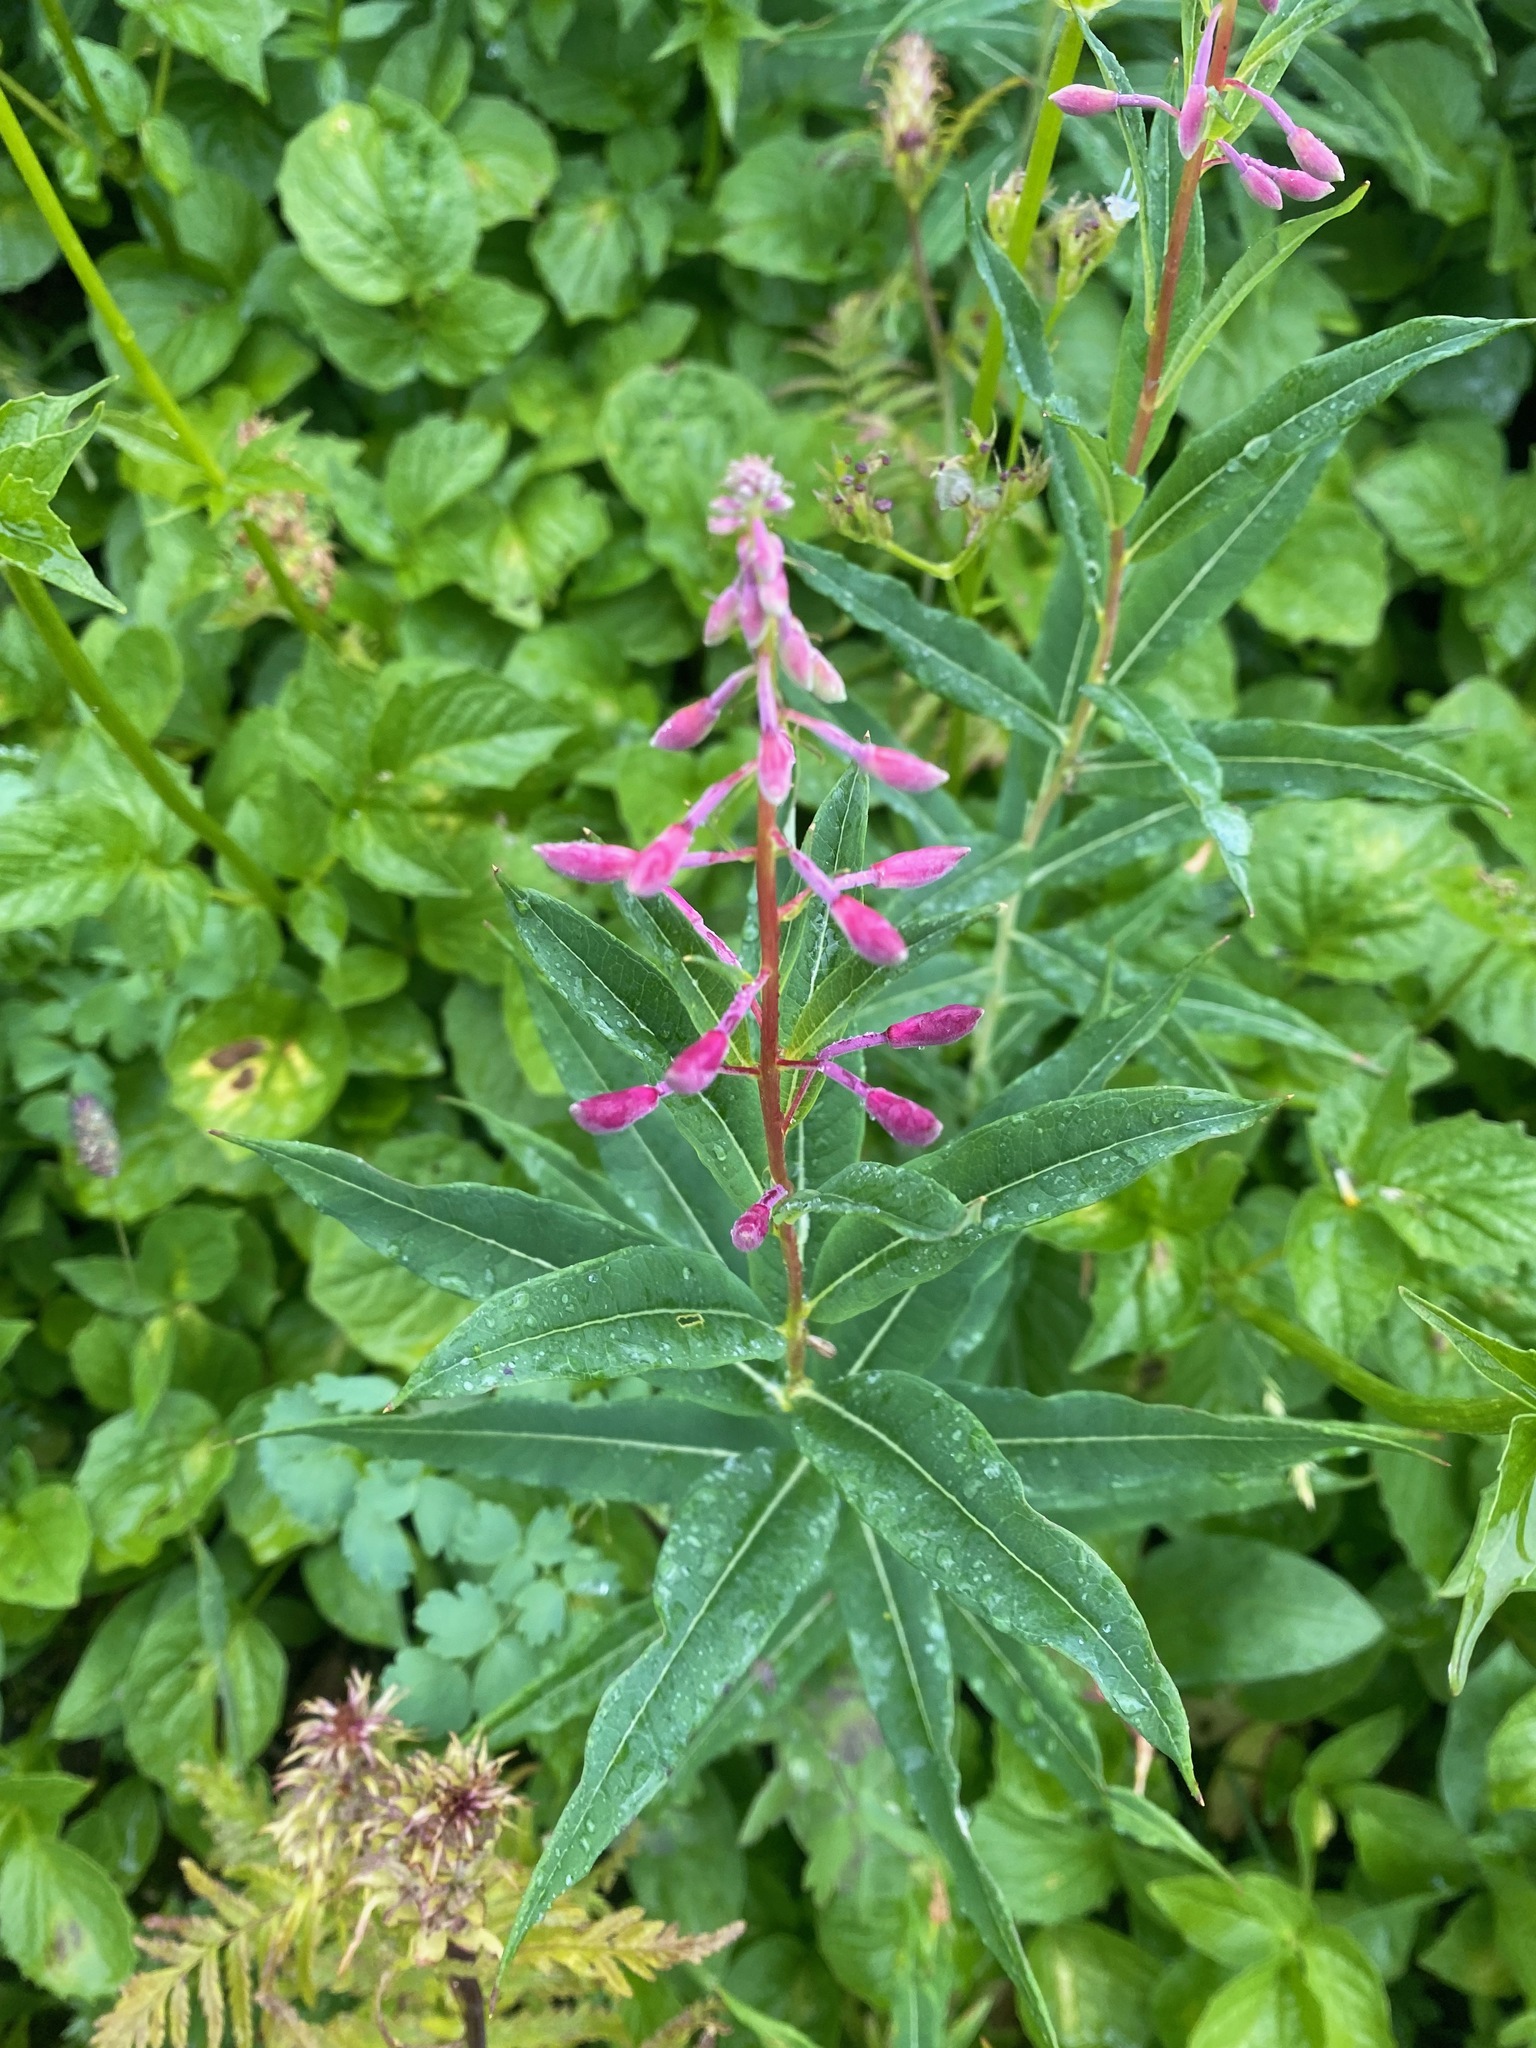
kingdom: Plantae
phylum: Tracheophyta
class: Magnoliopsida
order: Myrtales
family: Onagraceae
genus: Chamaenerion
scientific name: Chamaenerion angustifolium
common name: Fireweed
